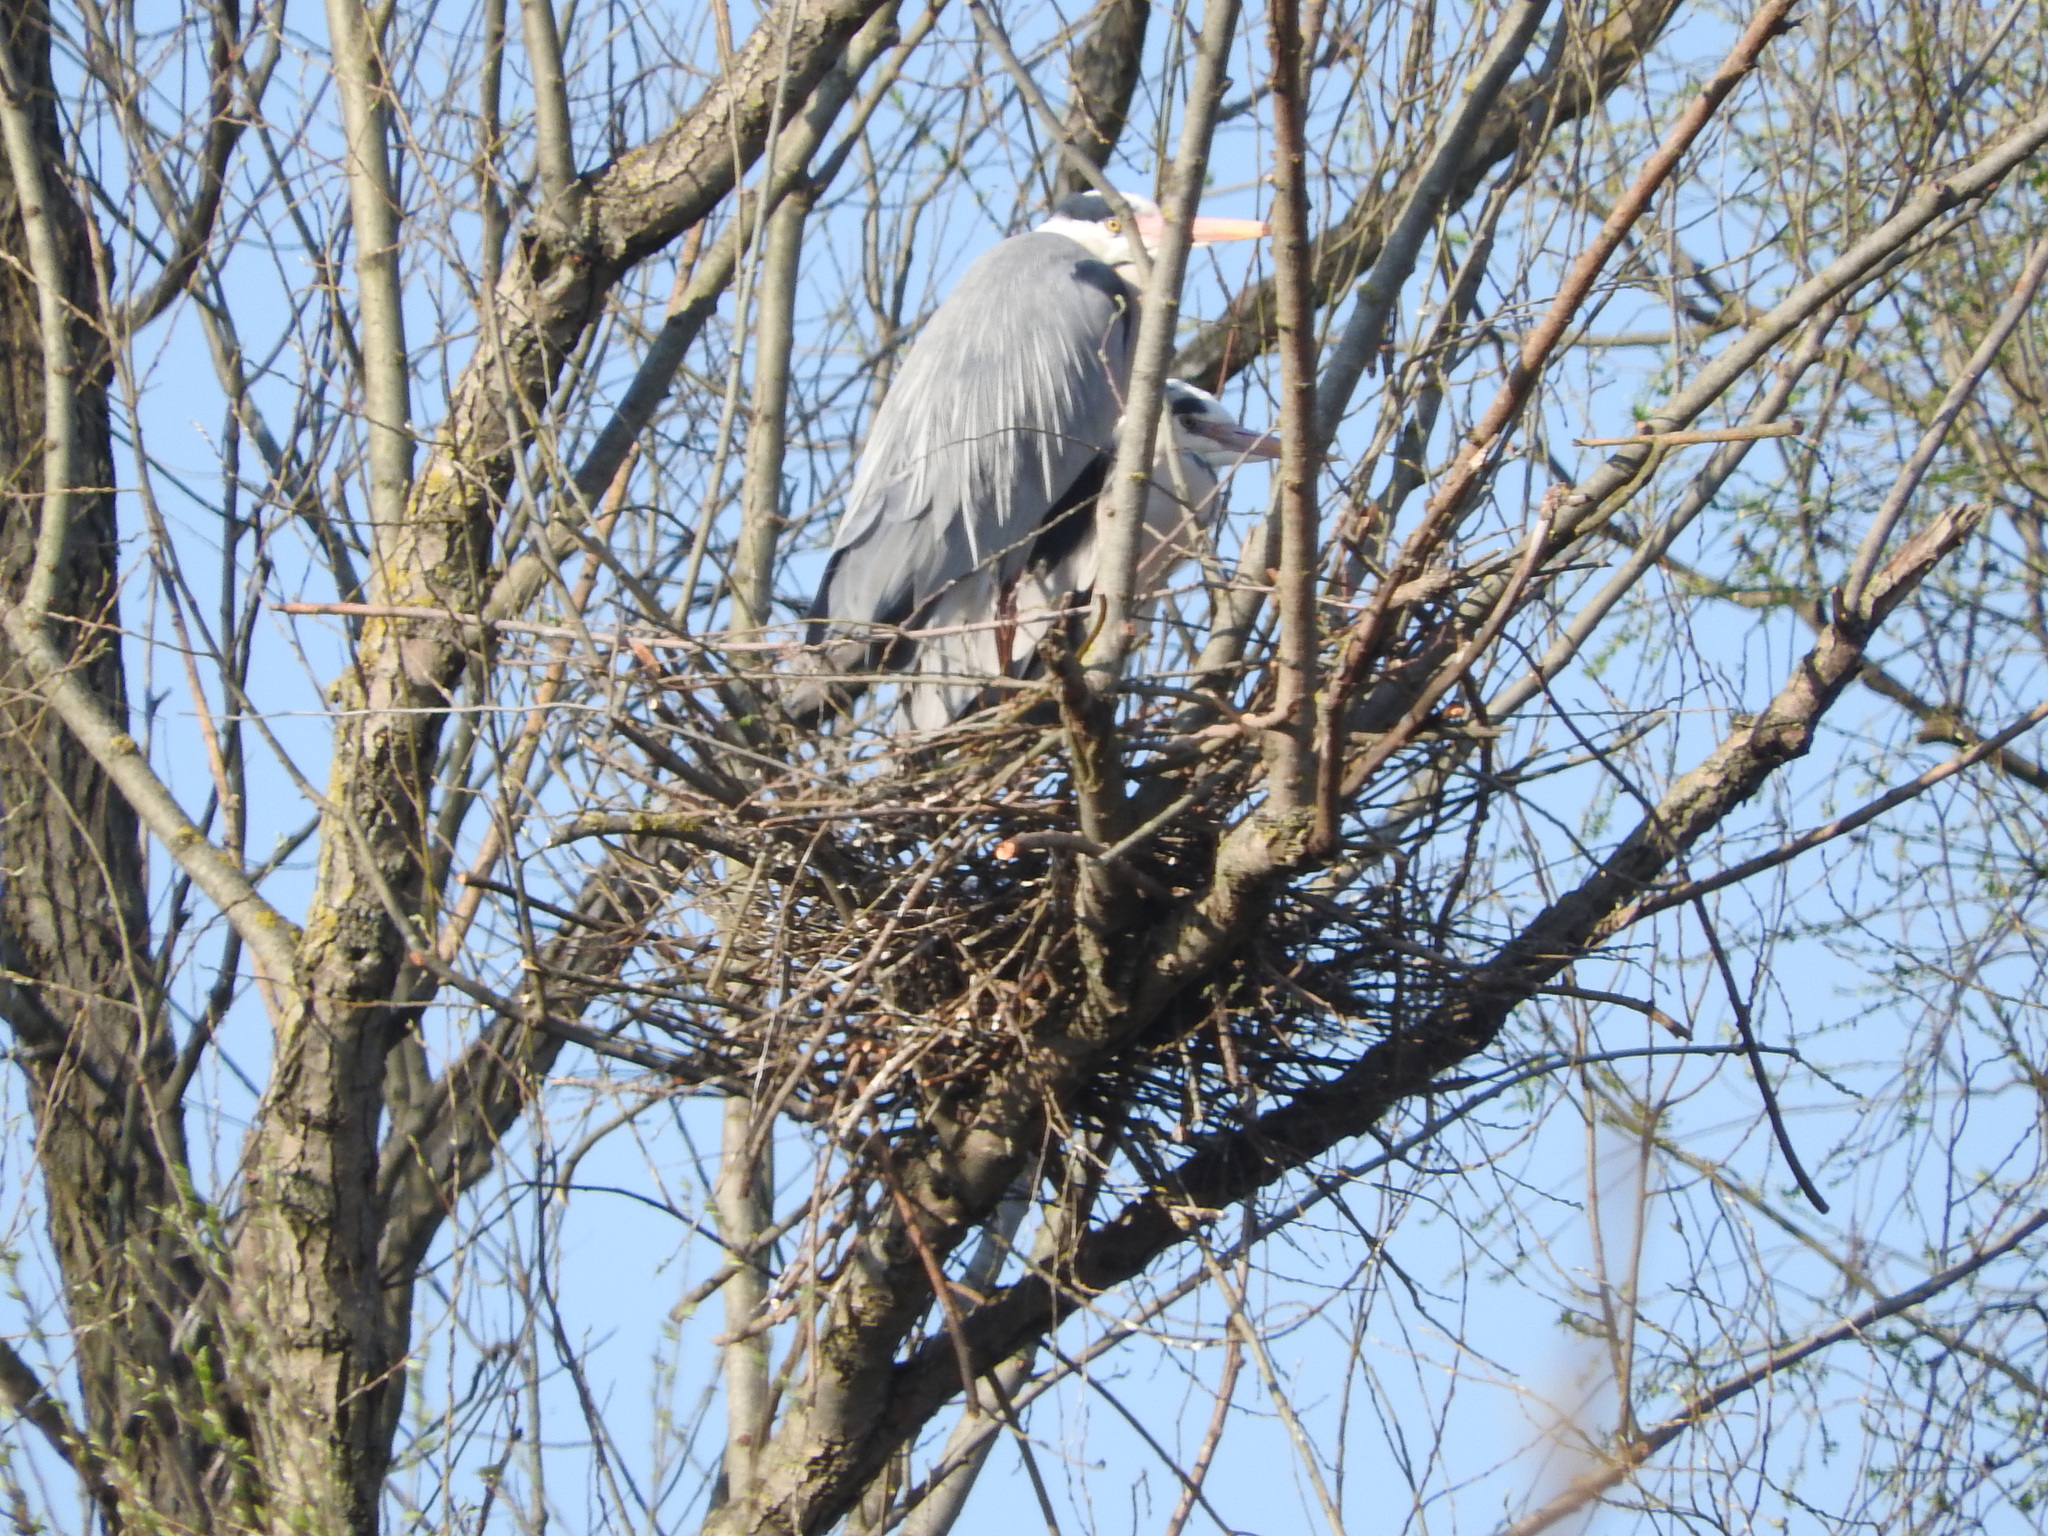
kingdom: Animalia
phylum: Chordata
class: Aves
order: Pelecaniformes
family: Ardeidae
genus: Ardea
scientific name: Ardea cinerea
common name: Grey heron
